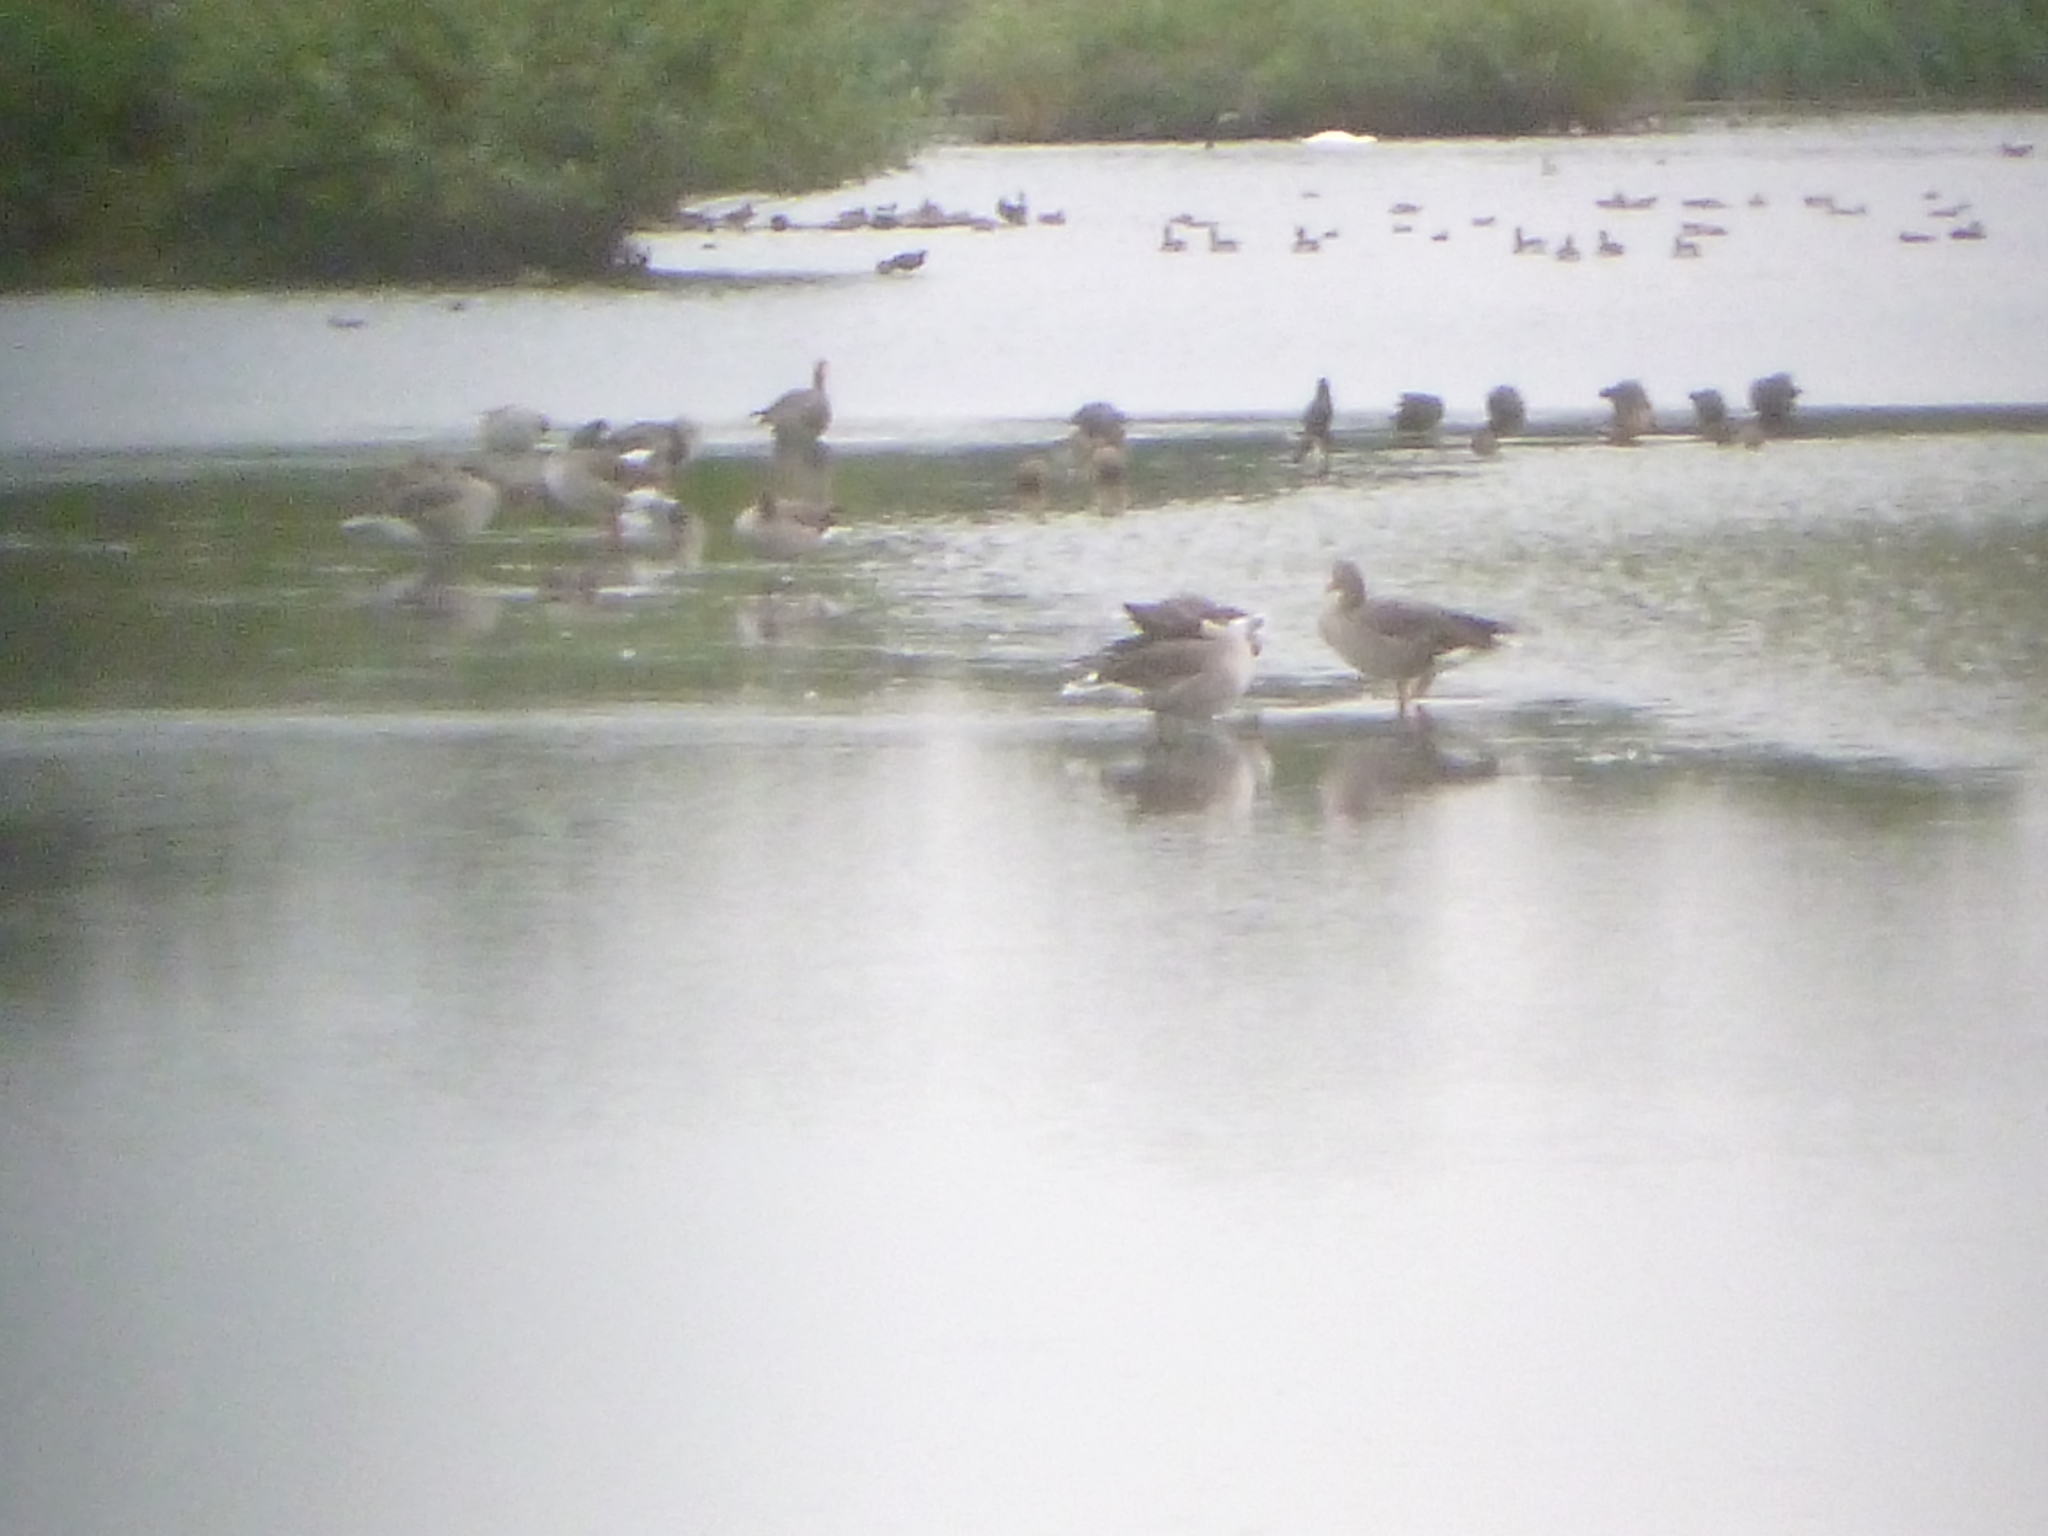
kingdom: Animalia
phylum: Chordata
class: Aves
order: Anseriformes
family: Anatidae
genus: Anser
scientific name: Anser anser
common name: Greylag goose
